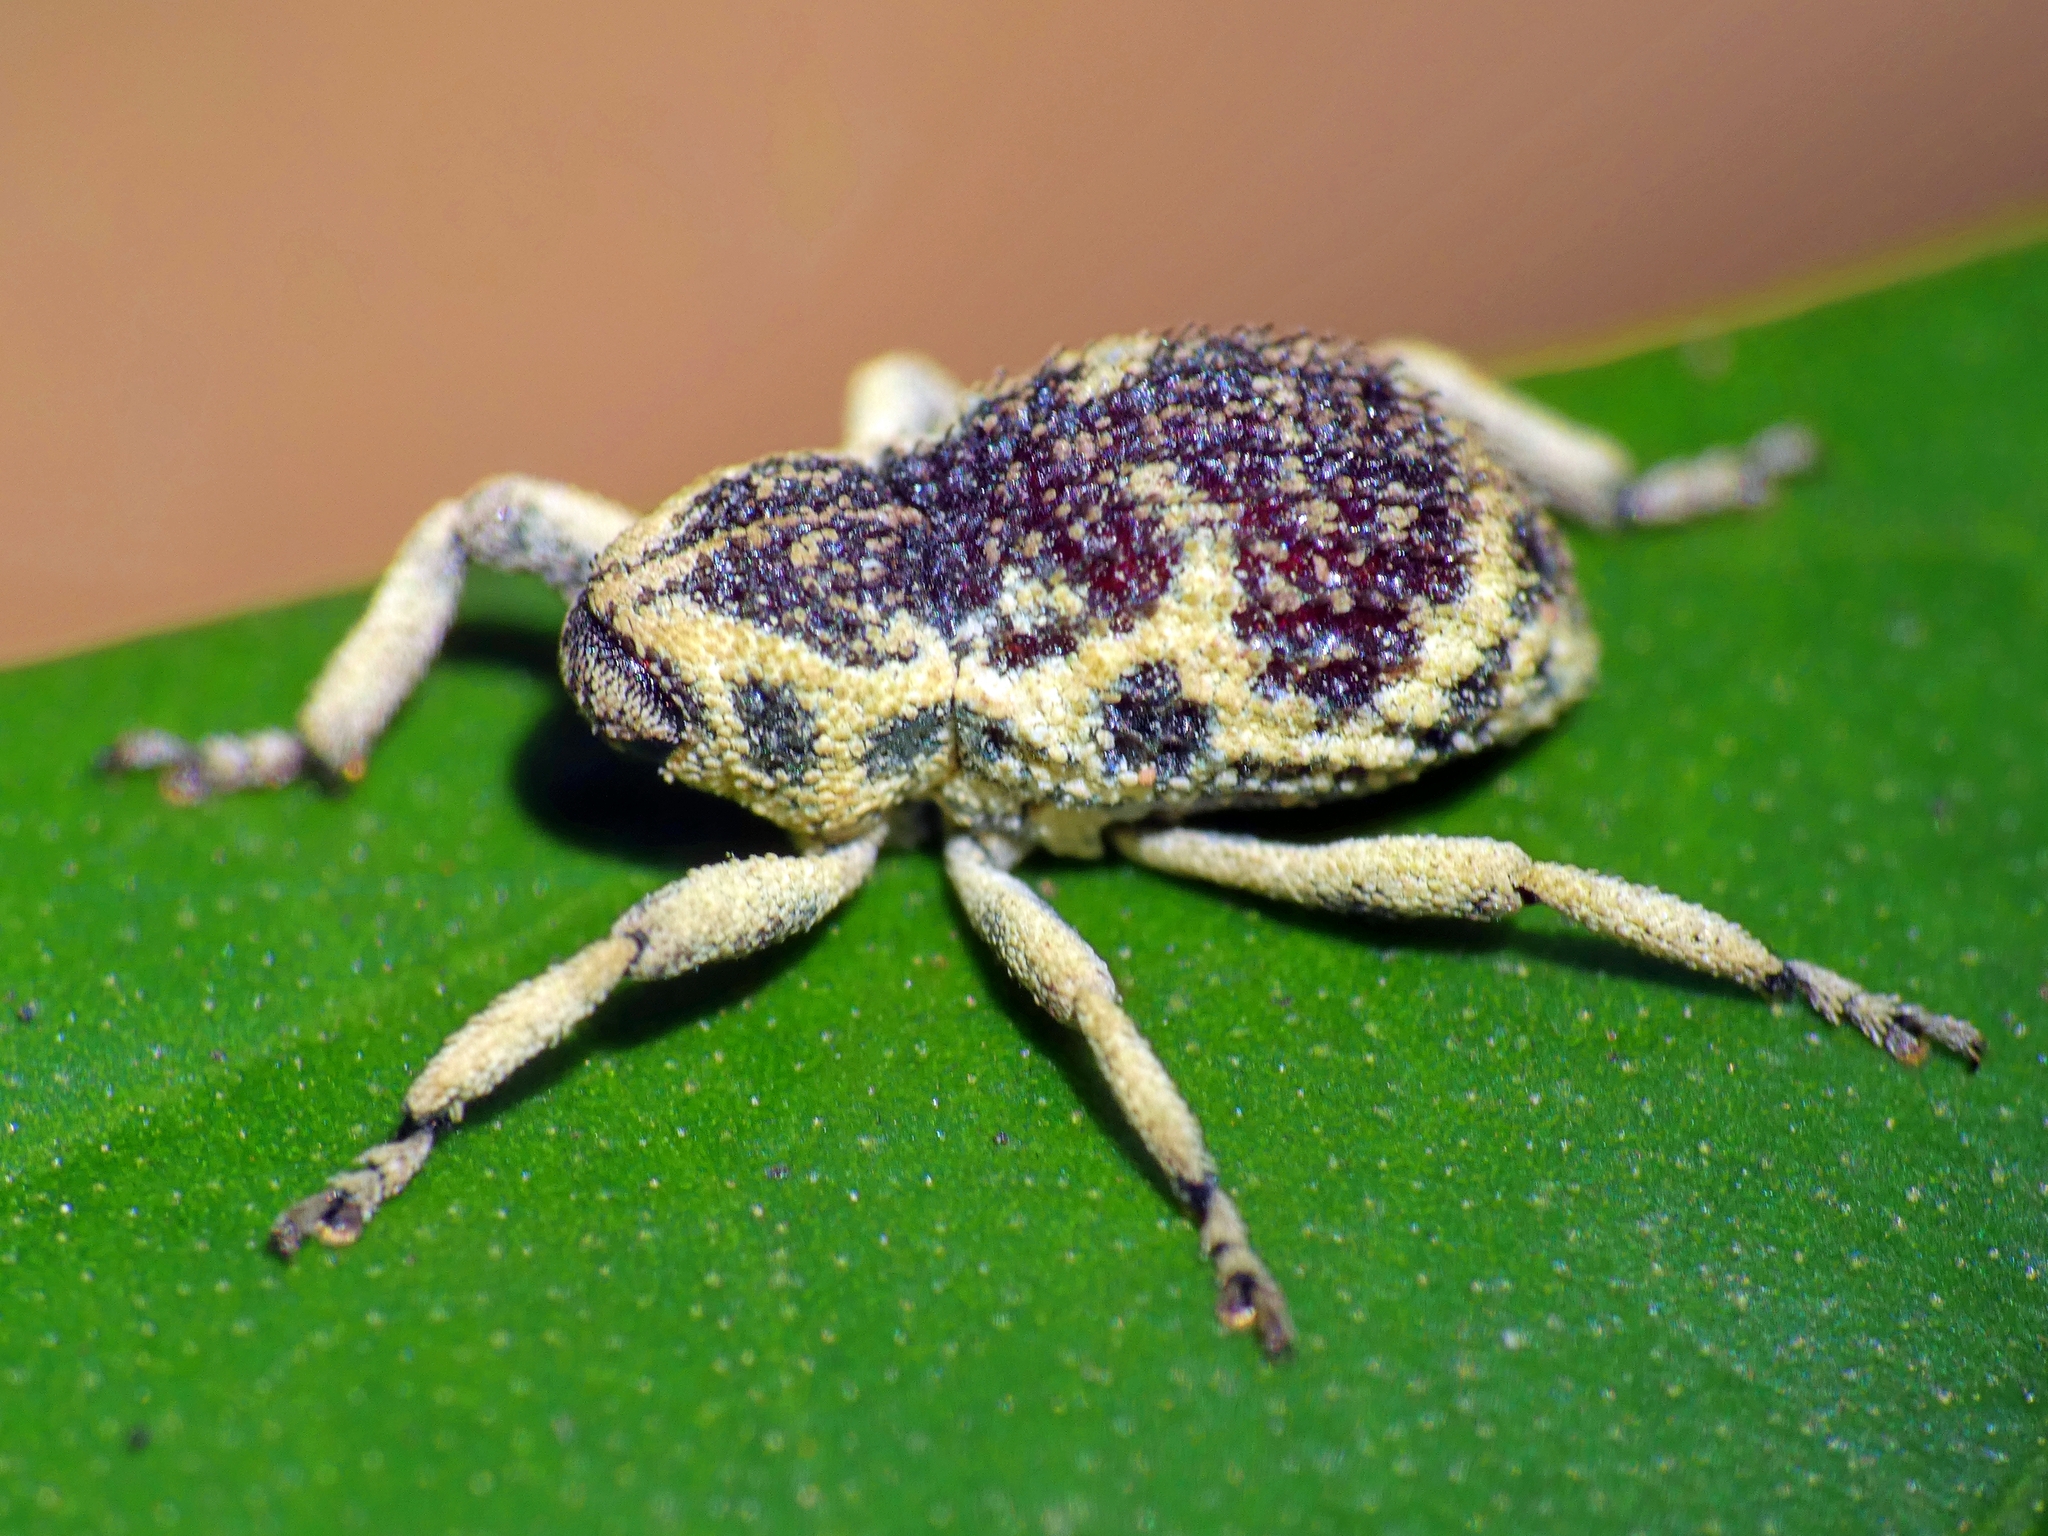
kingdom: Animalia
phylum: Arthropoda
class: Insecta
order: Coleoptera
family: Curculionidae
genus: Pteroporopterus
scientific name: Pteroporopterus lacunosus
